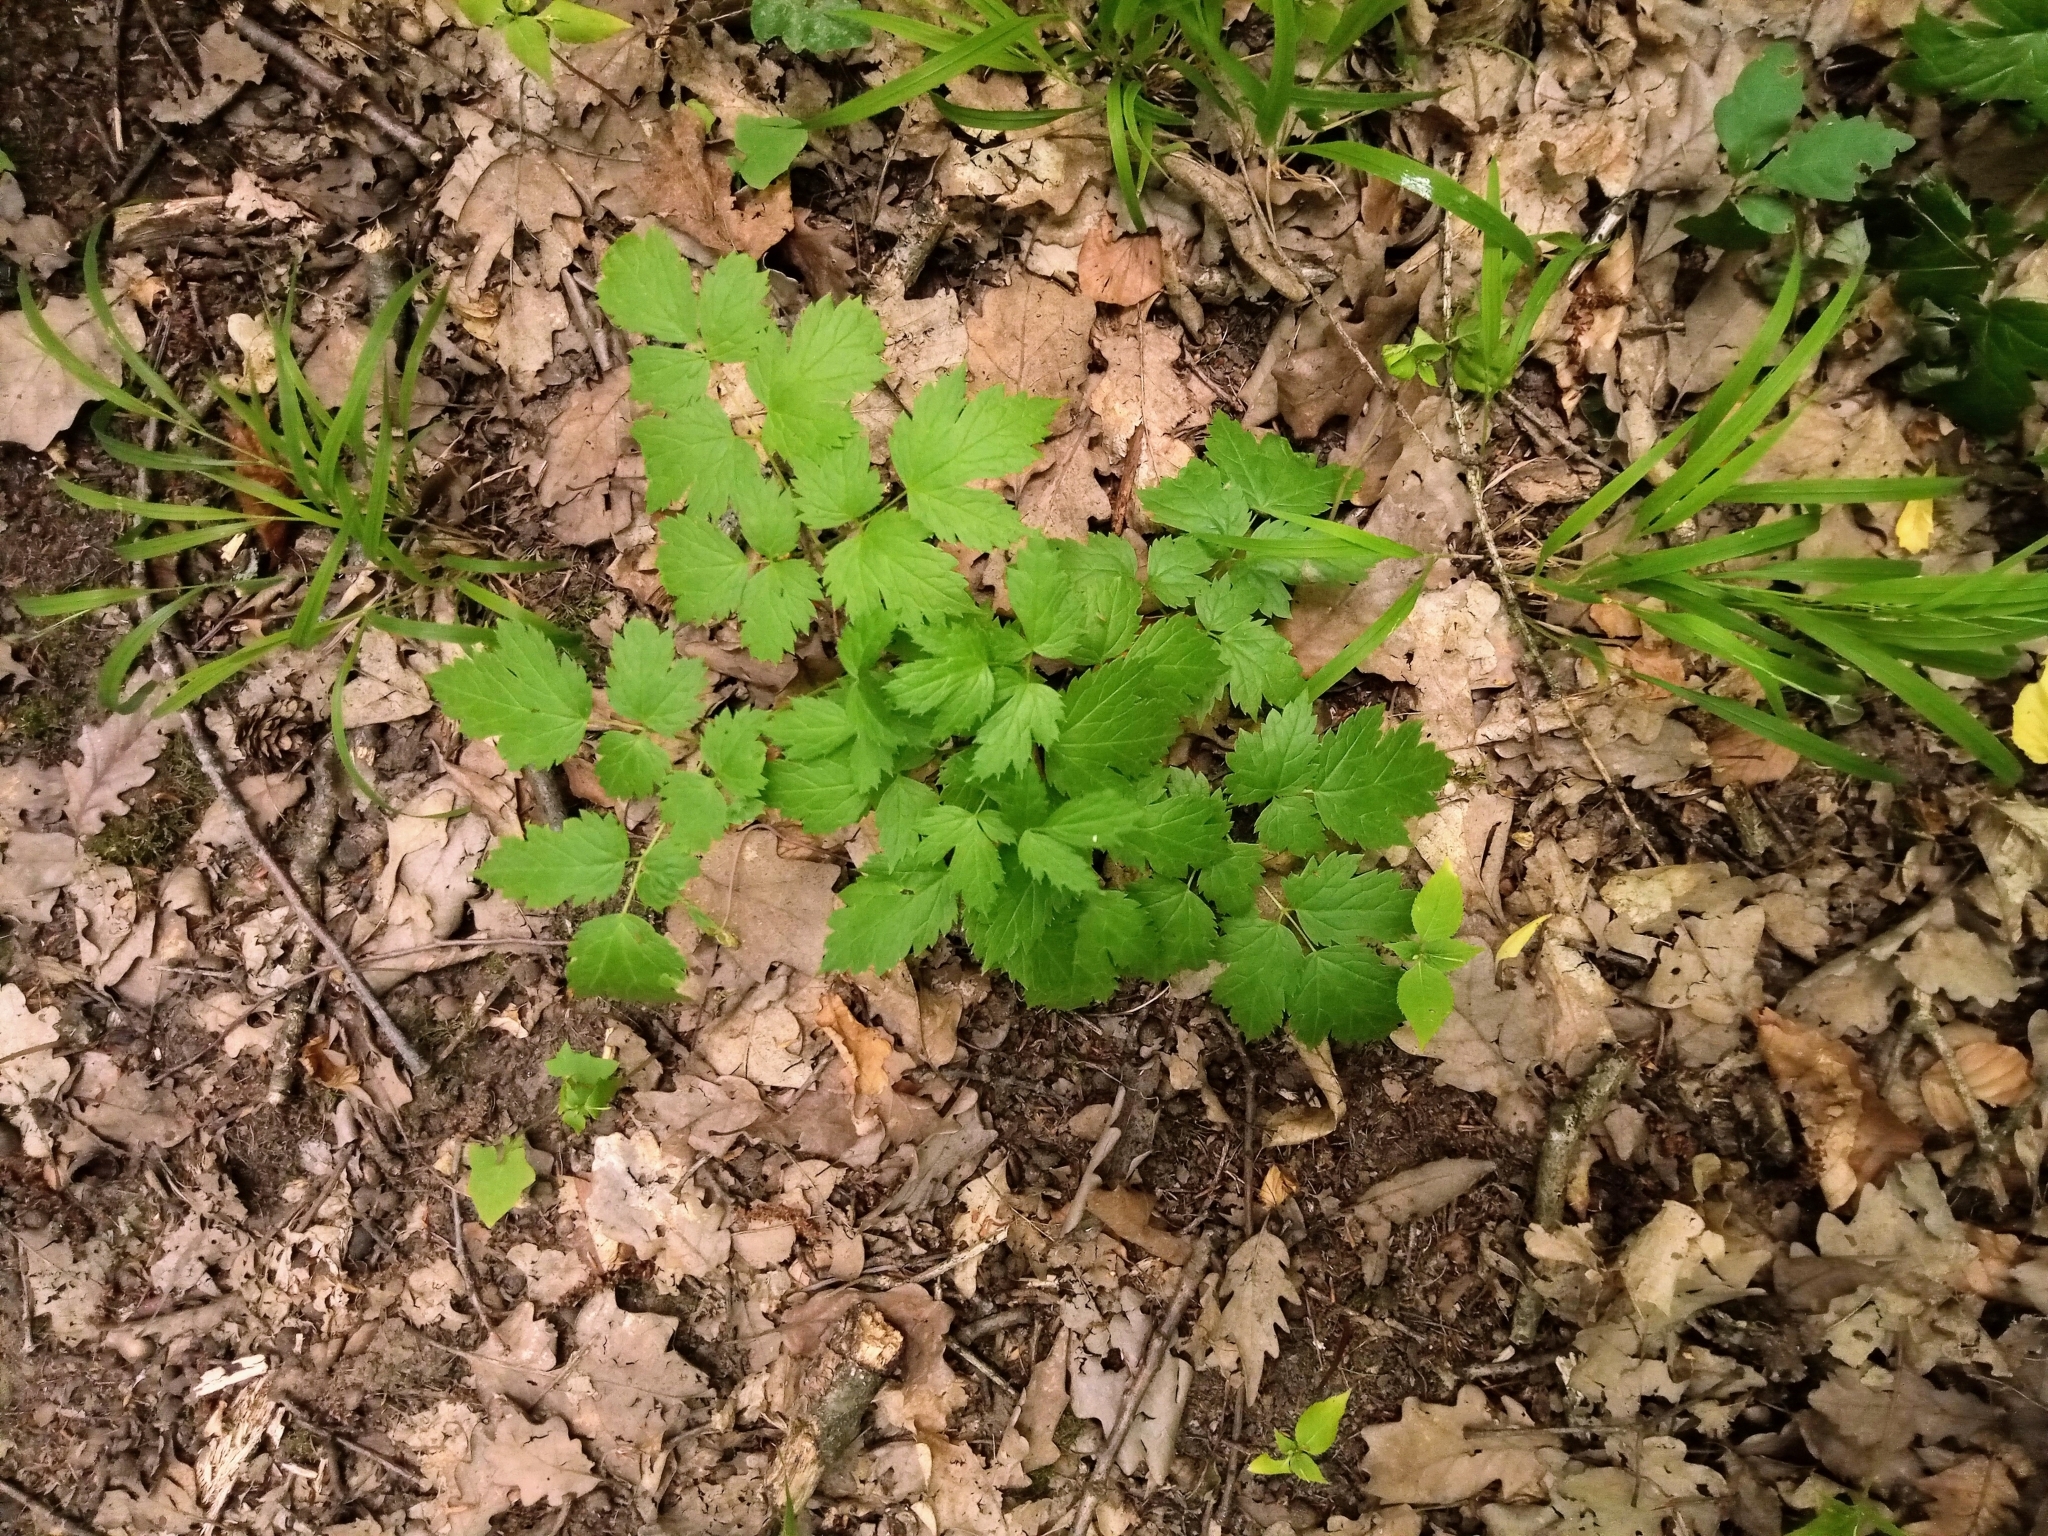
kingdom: Plantae
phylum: Tracheophyta
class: Magnoliopsida
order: Ranunculales
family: Ranunculaceae
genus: Actaea
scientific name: Actaea spicata
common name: Baneberry
